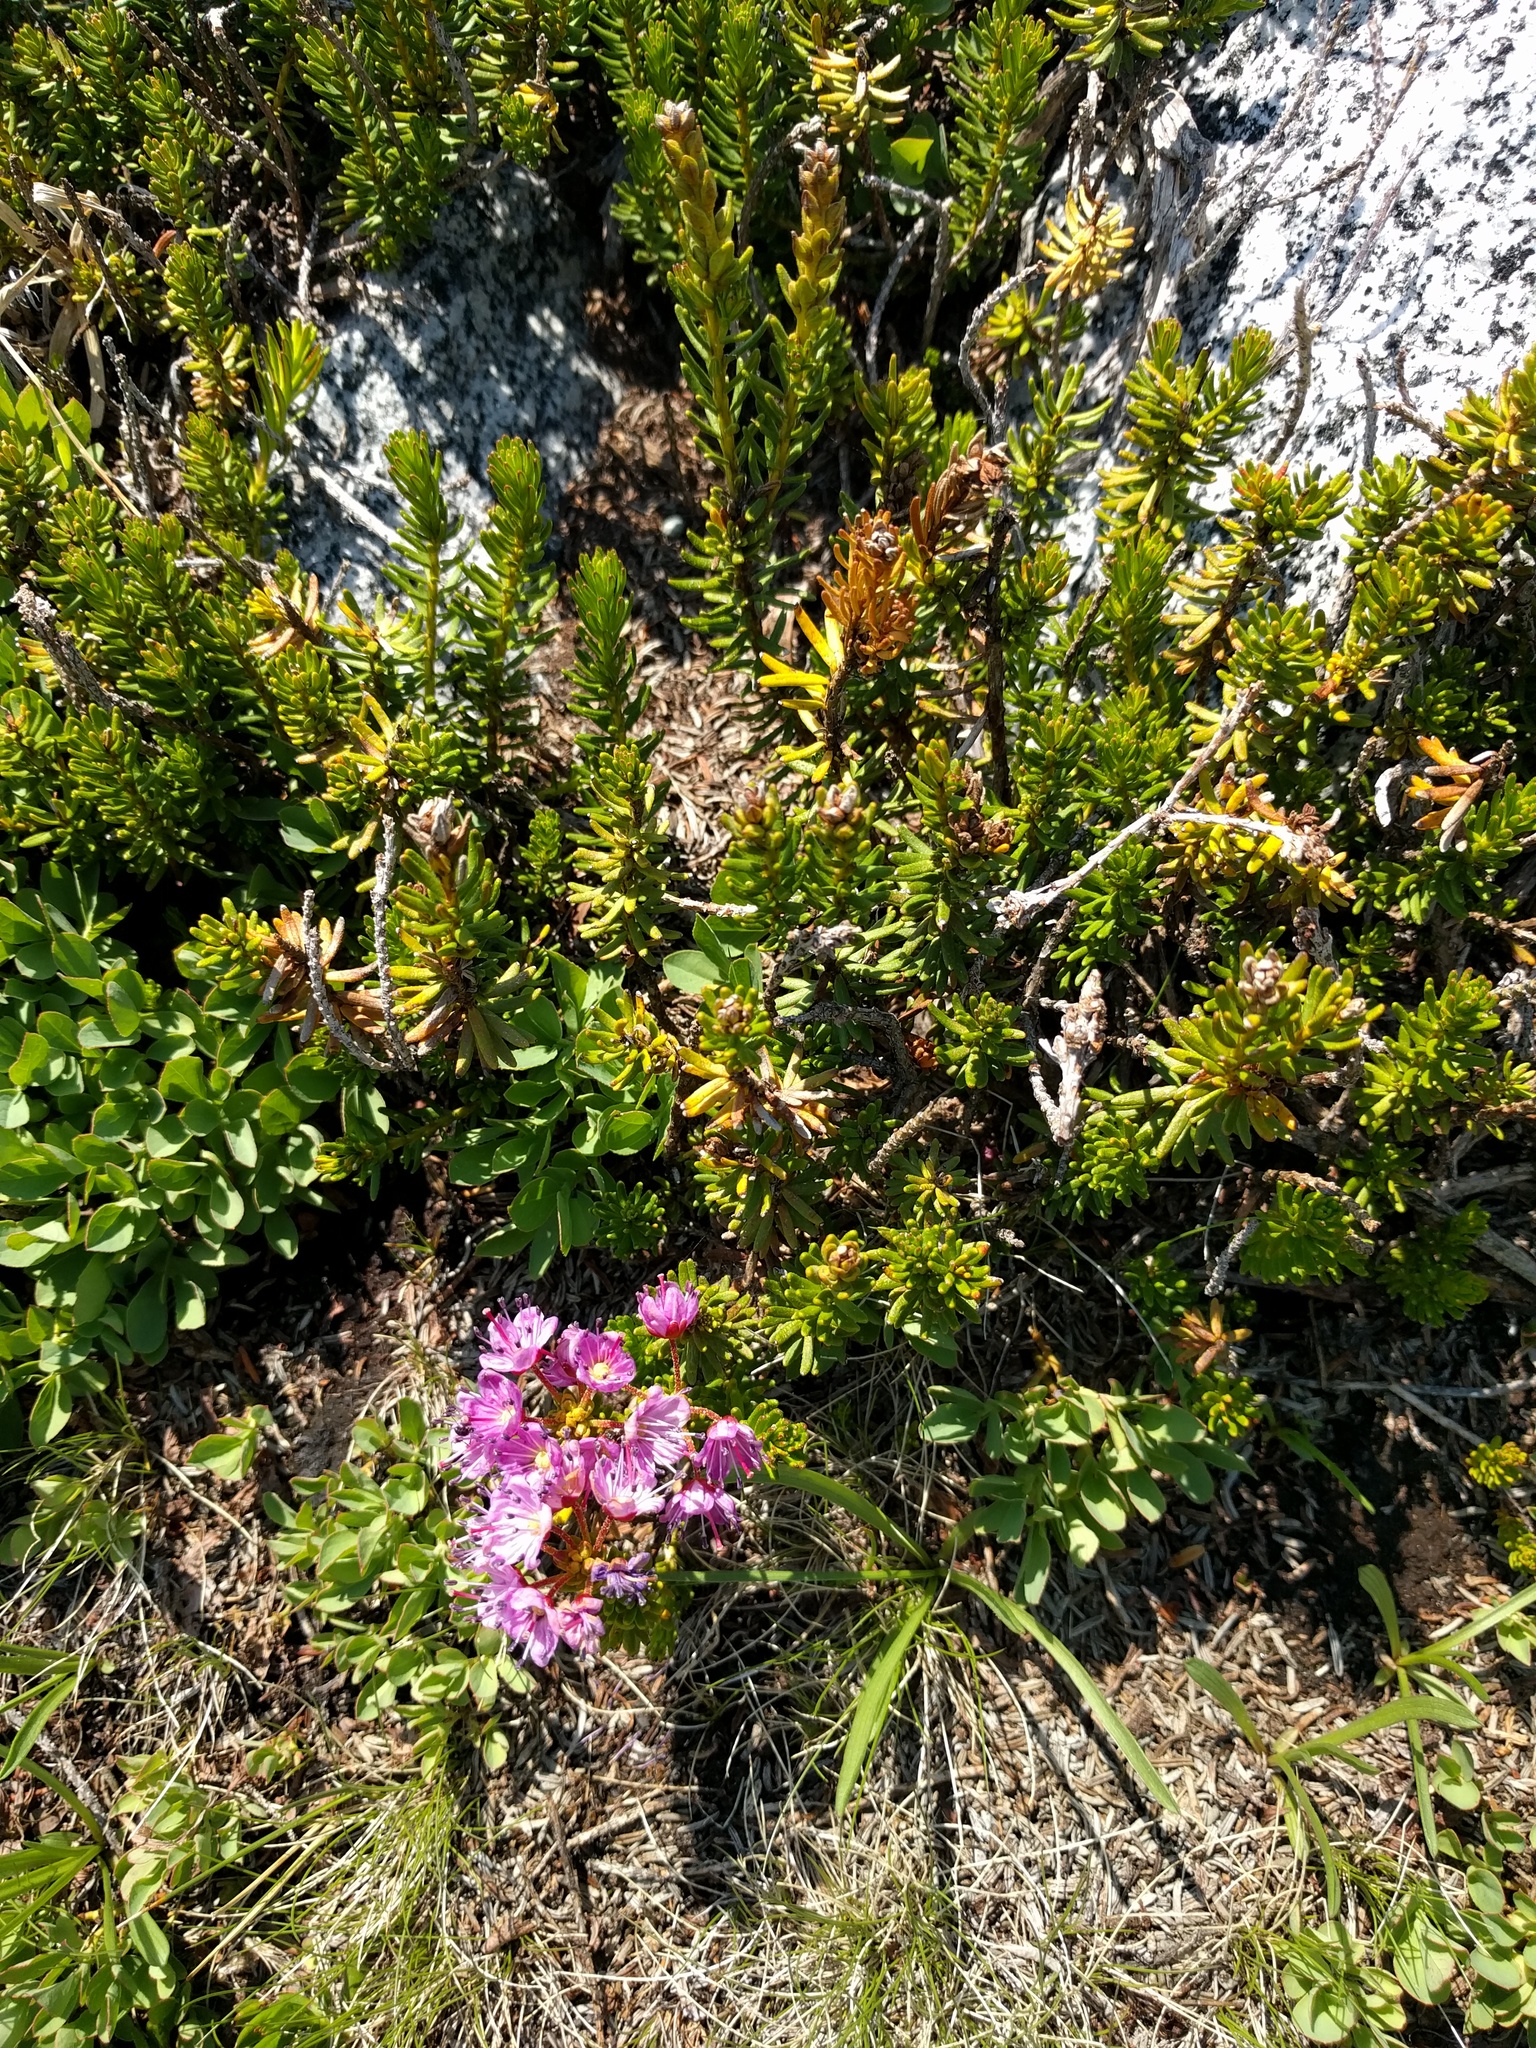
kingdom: Plantae
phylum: Tracheophyta
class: Magnoliopsida
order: Ericales
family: Ericaceae
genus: Kalmia
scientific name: Kalmia microphylla
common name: Alpine bog laurel
